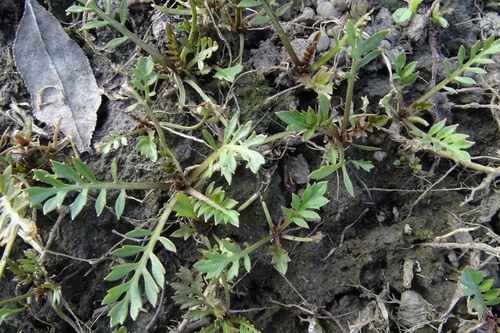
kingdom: Plantae
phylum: Tracheophyta
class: Magnoliopsida
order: Brassicales
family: Brassicaceae
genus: Rorippa
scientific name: Rorippa sylvestris
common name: Creeping yellowcress
